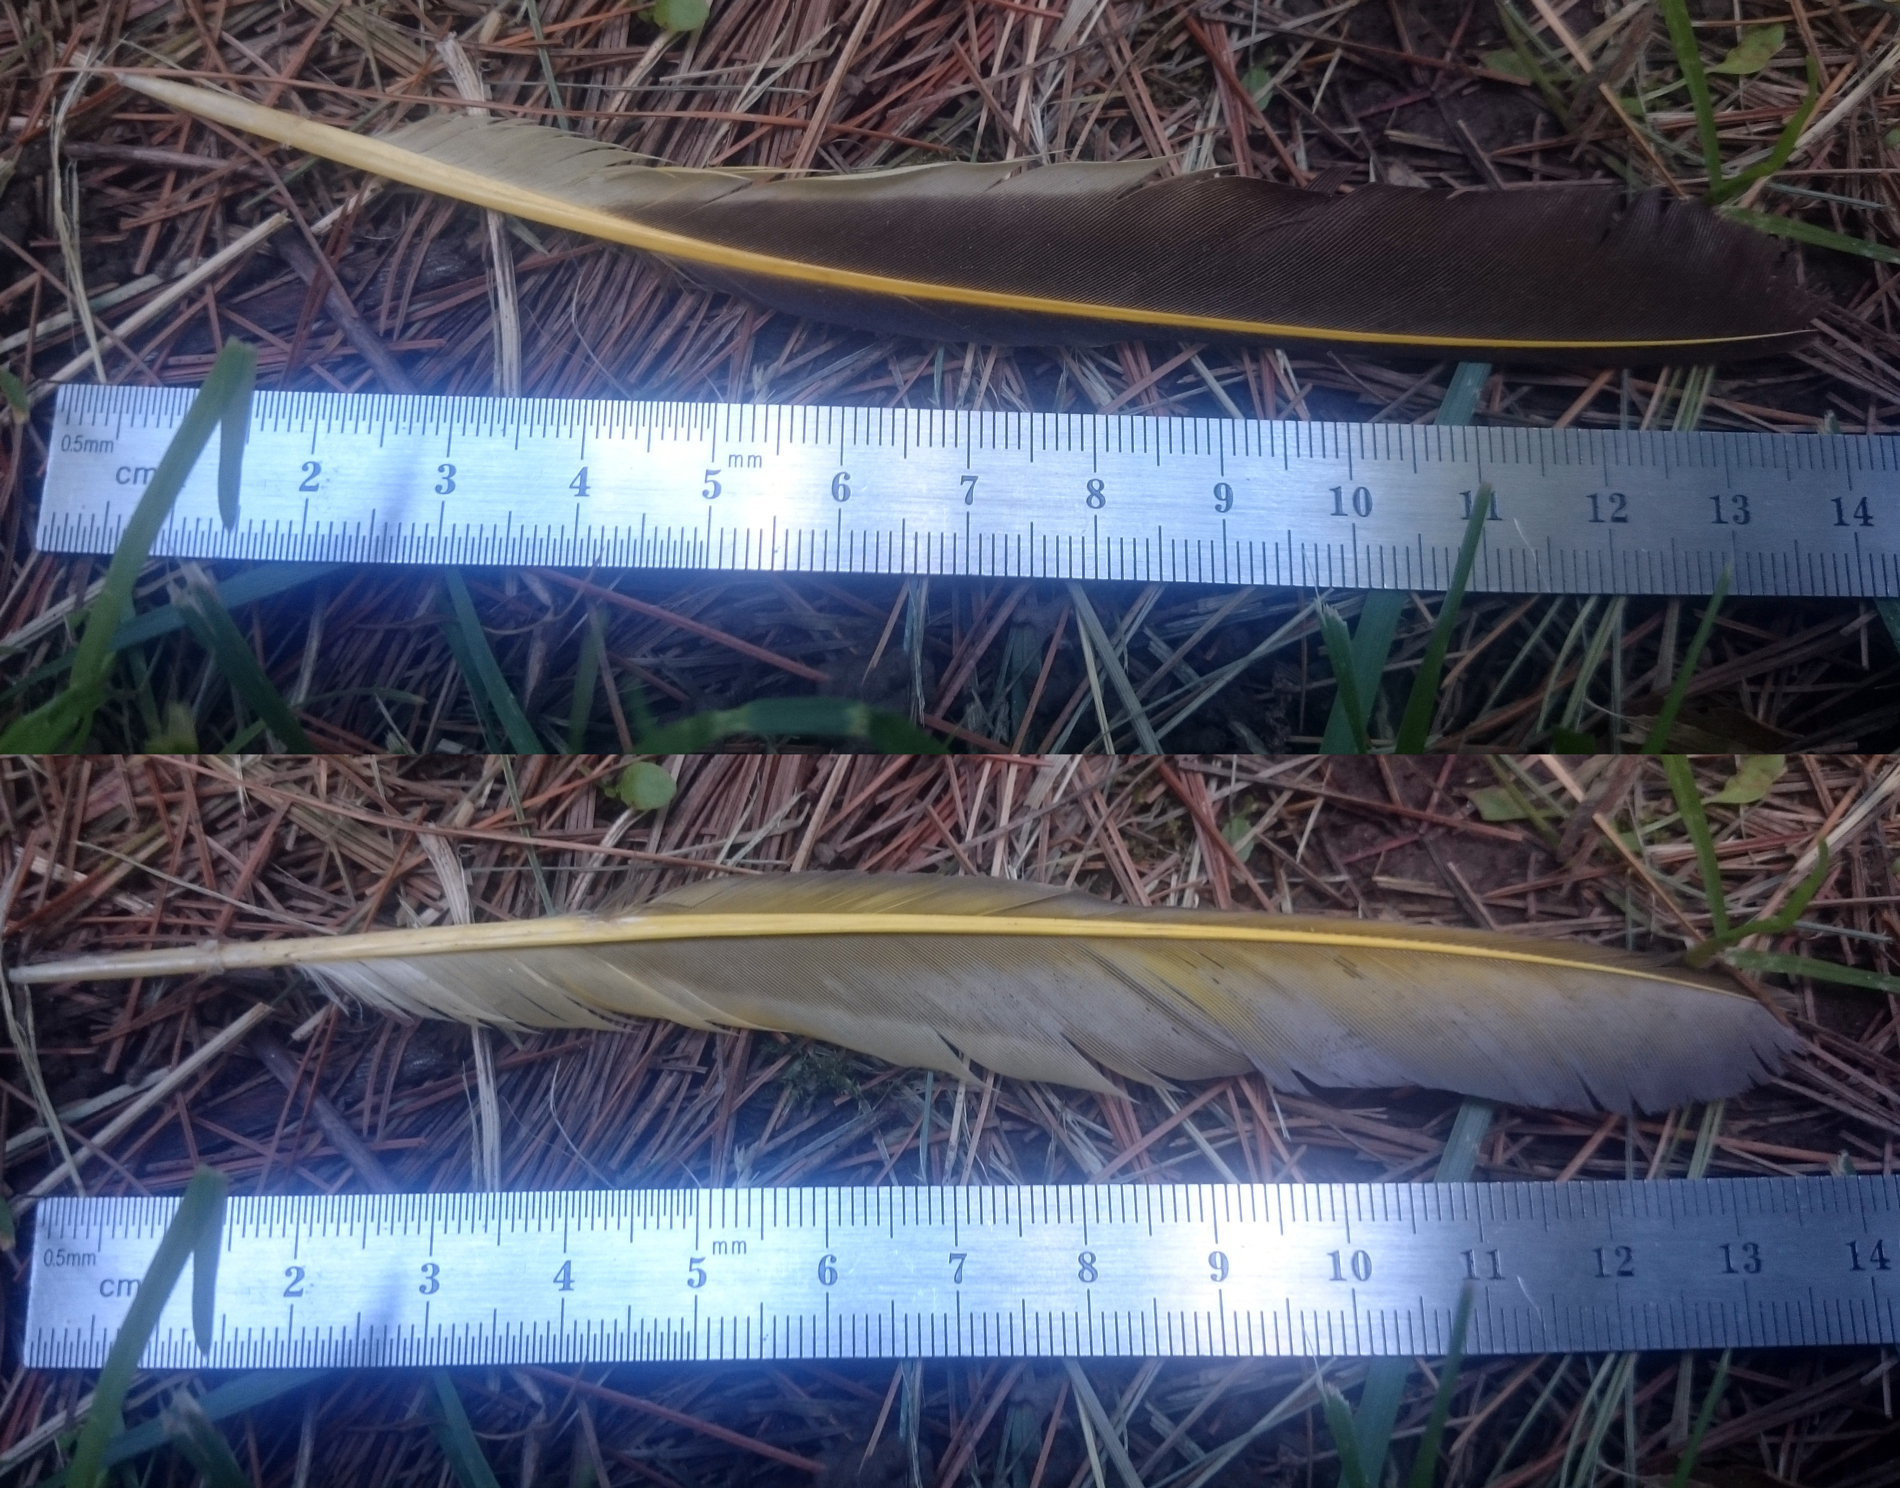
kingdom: Animalia
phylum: Chordata
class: Aves
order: Piciformes
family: Picidae
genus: Colaptes
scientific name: Colaptes auratus
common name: Northern flicker
